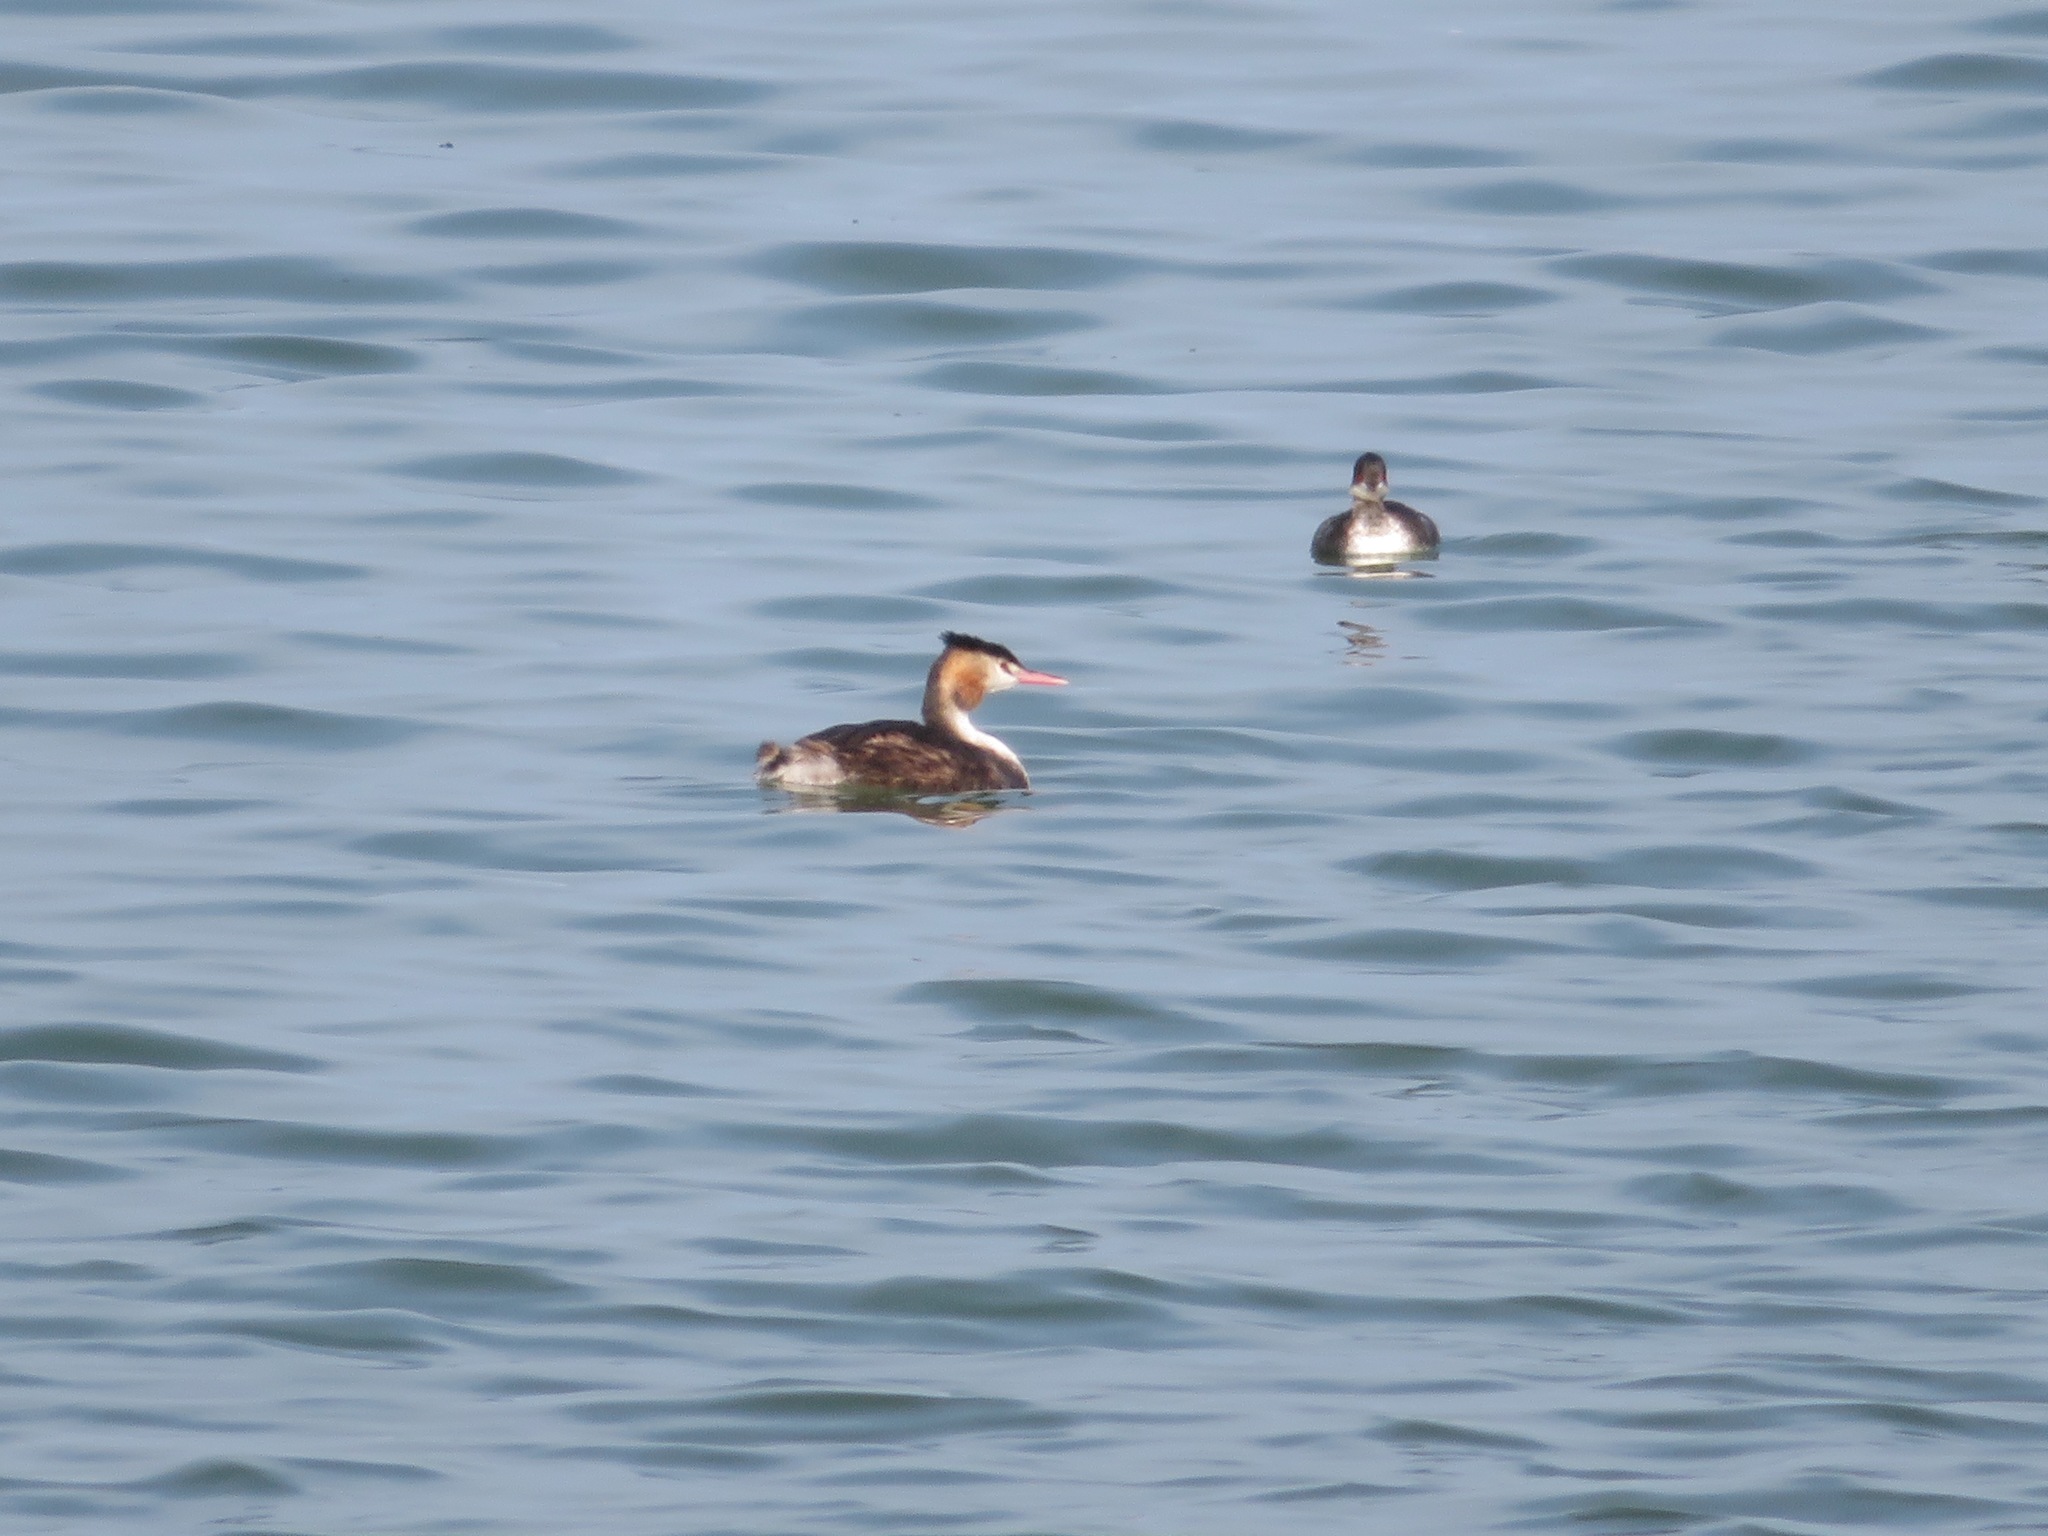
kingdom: Animalia
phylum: Chordata
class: Aves
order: Podicipediformes
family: Podicipedidae
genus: Podiceps
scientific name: Podiceps cristatus
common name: Great crested grebe
